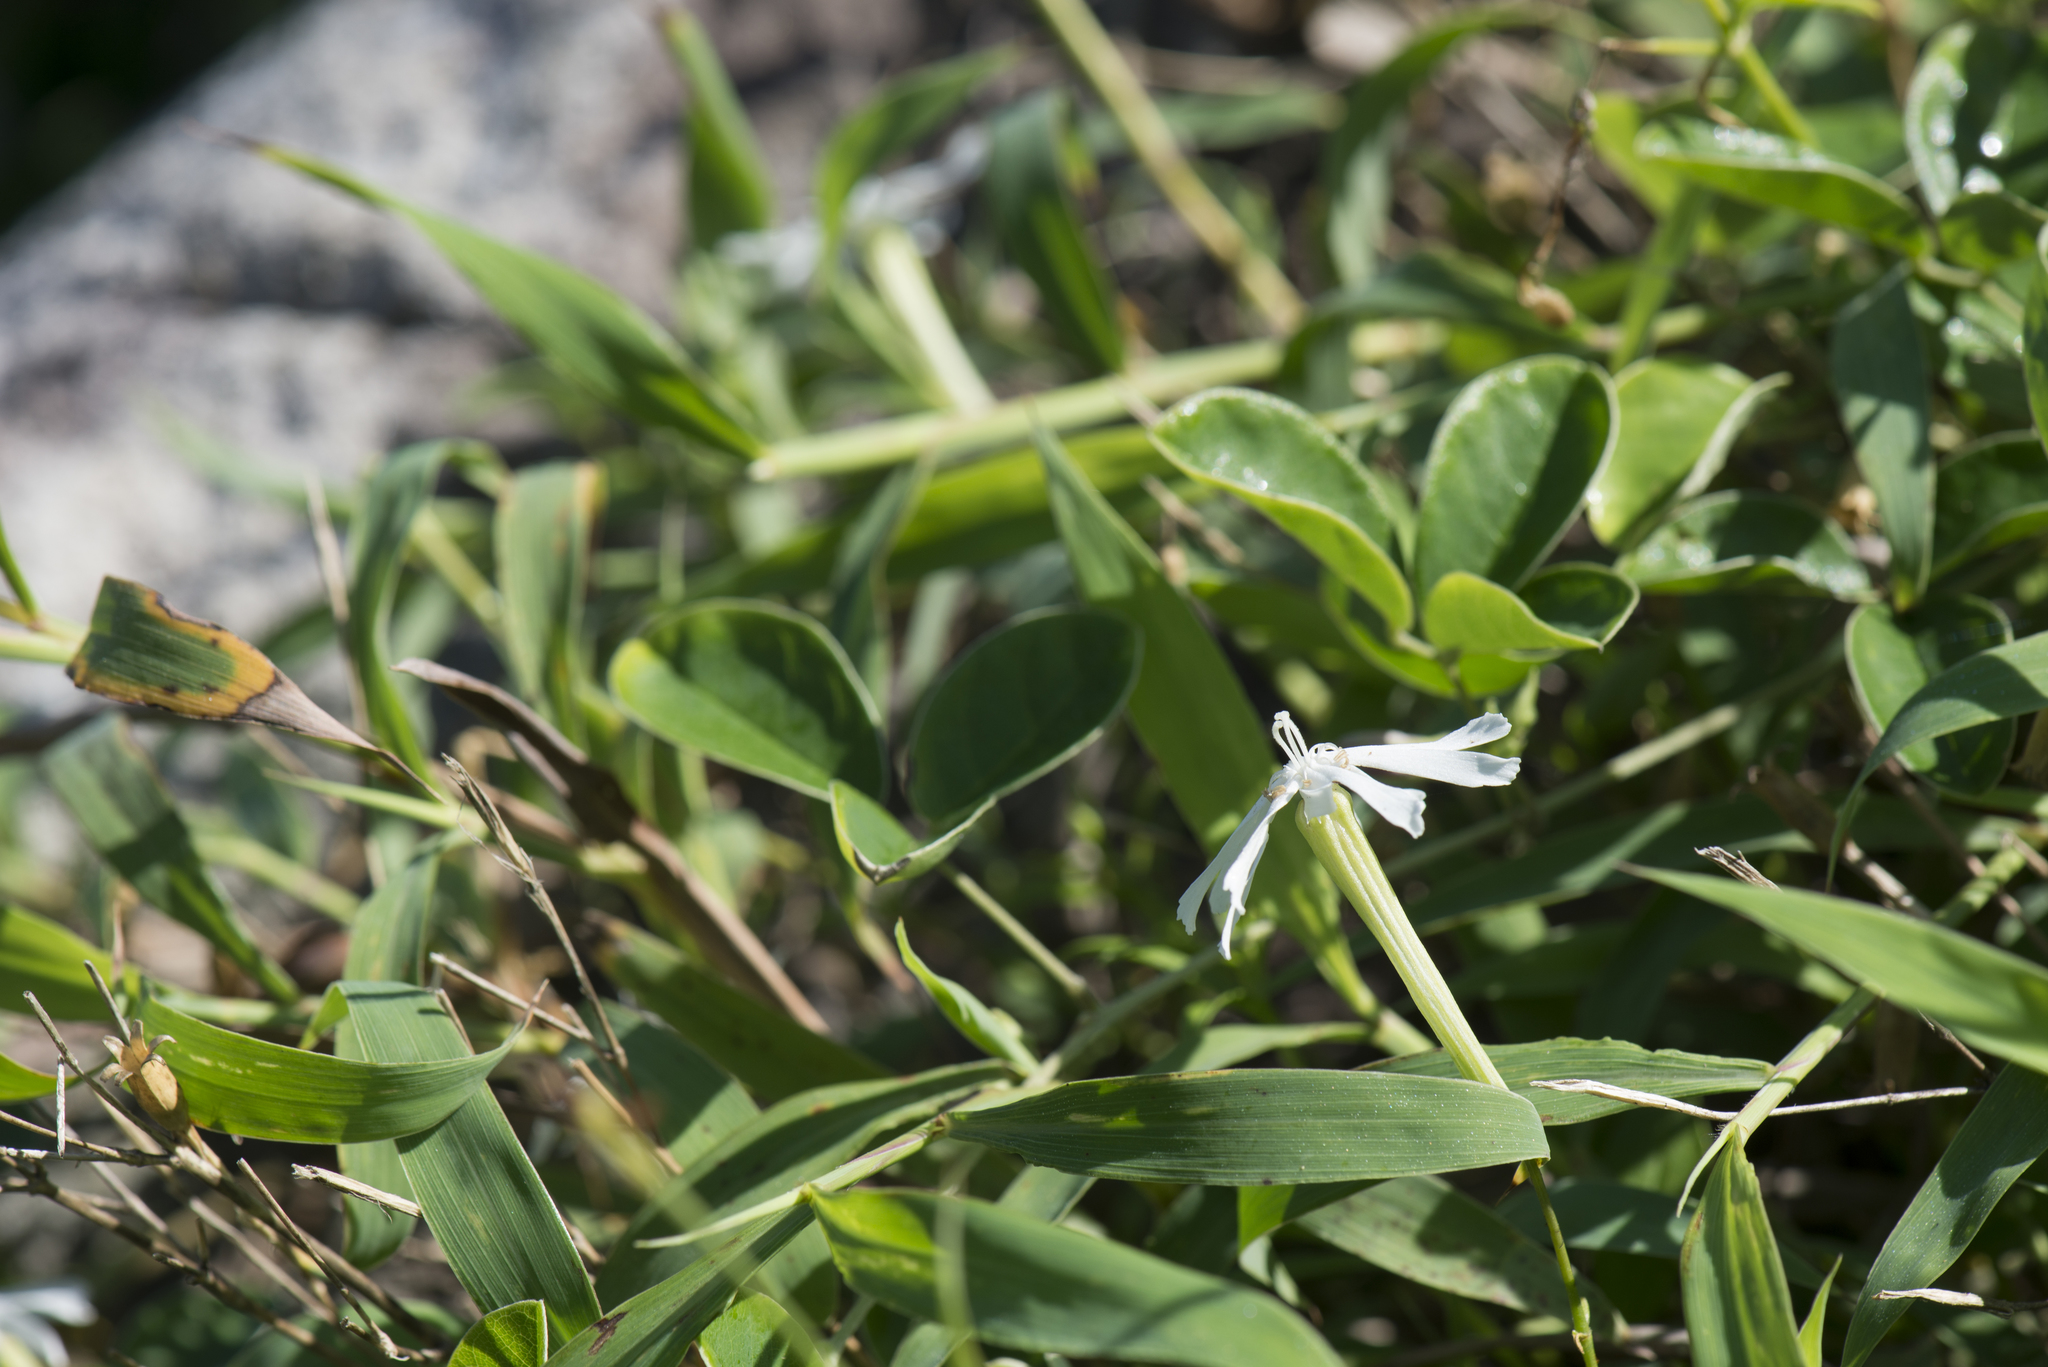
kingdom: Plantae
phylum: Tracheophyta
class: Magnoliopsida
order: Caryophyllales
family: Caryophyllaceae
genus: Silene
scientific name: Silene fissipetala
